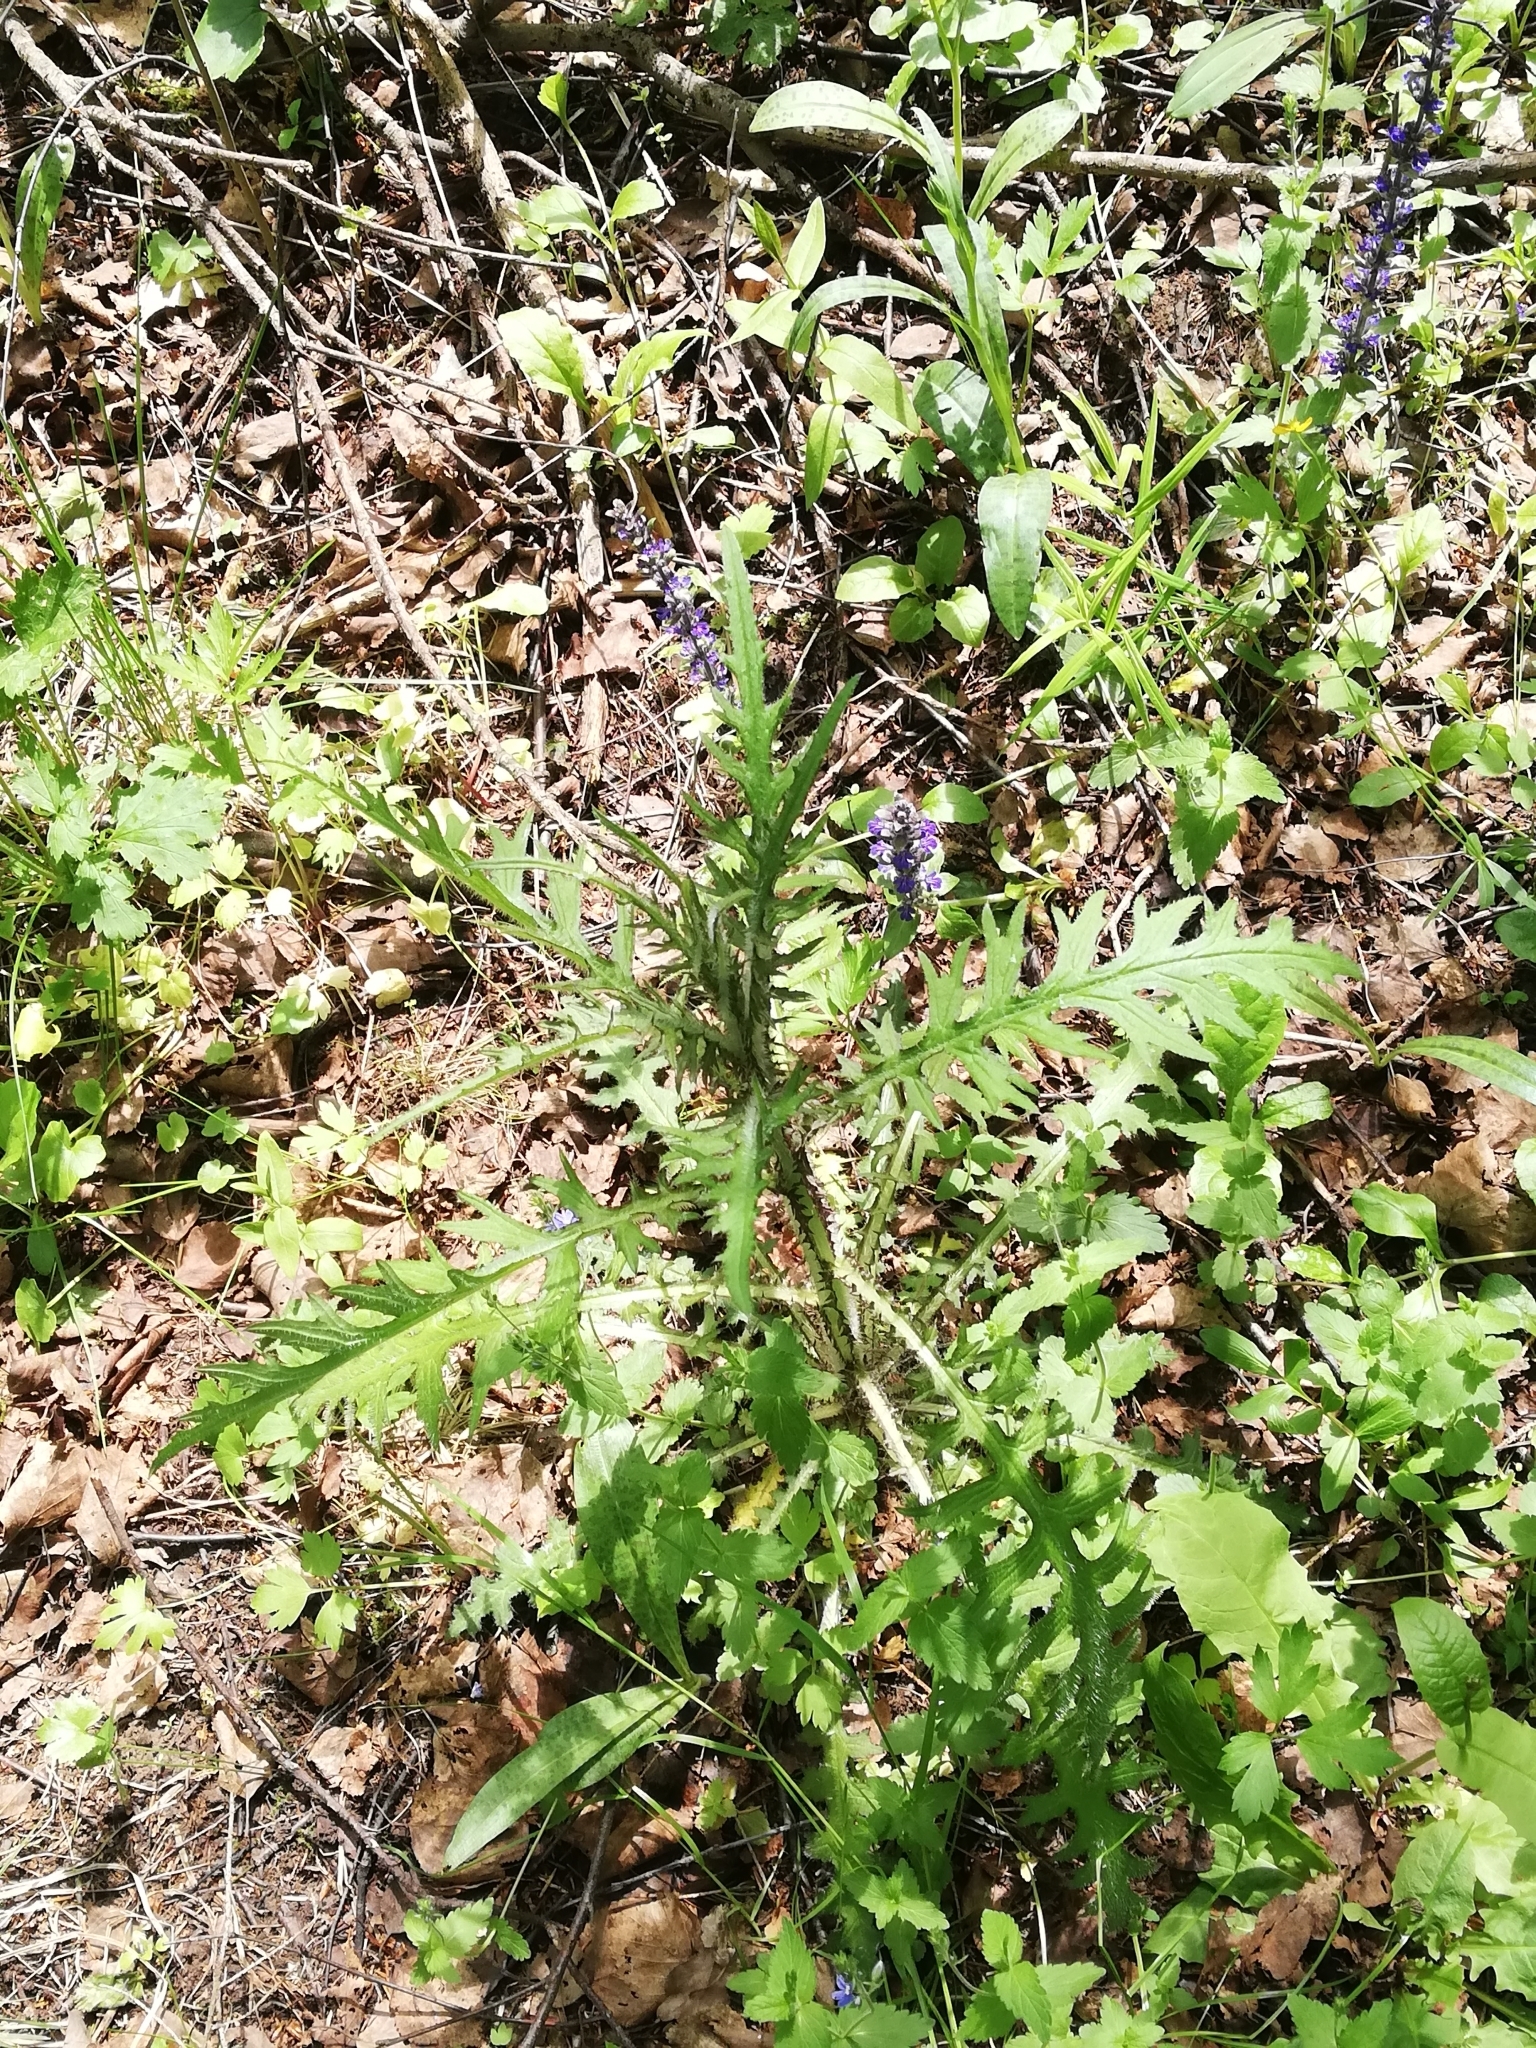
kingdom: Plantae
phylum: Tracheophyta
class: Magnoliopsida
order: Asterales
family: Asteraceae
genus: Cirsium
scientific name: Cirsium palustre
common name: Marsh thistle
